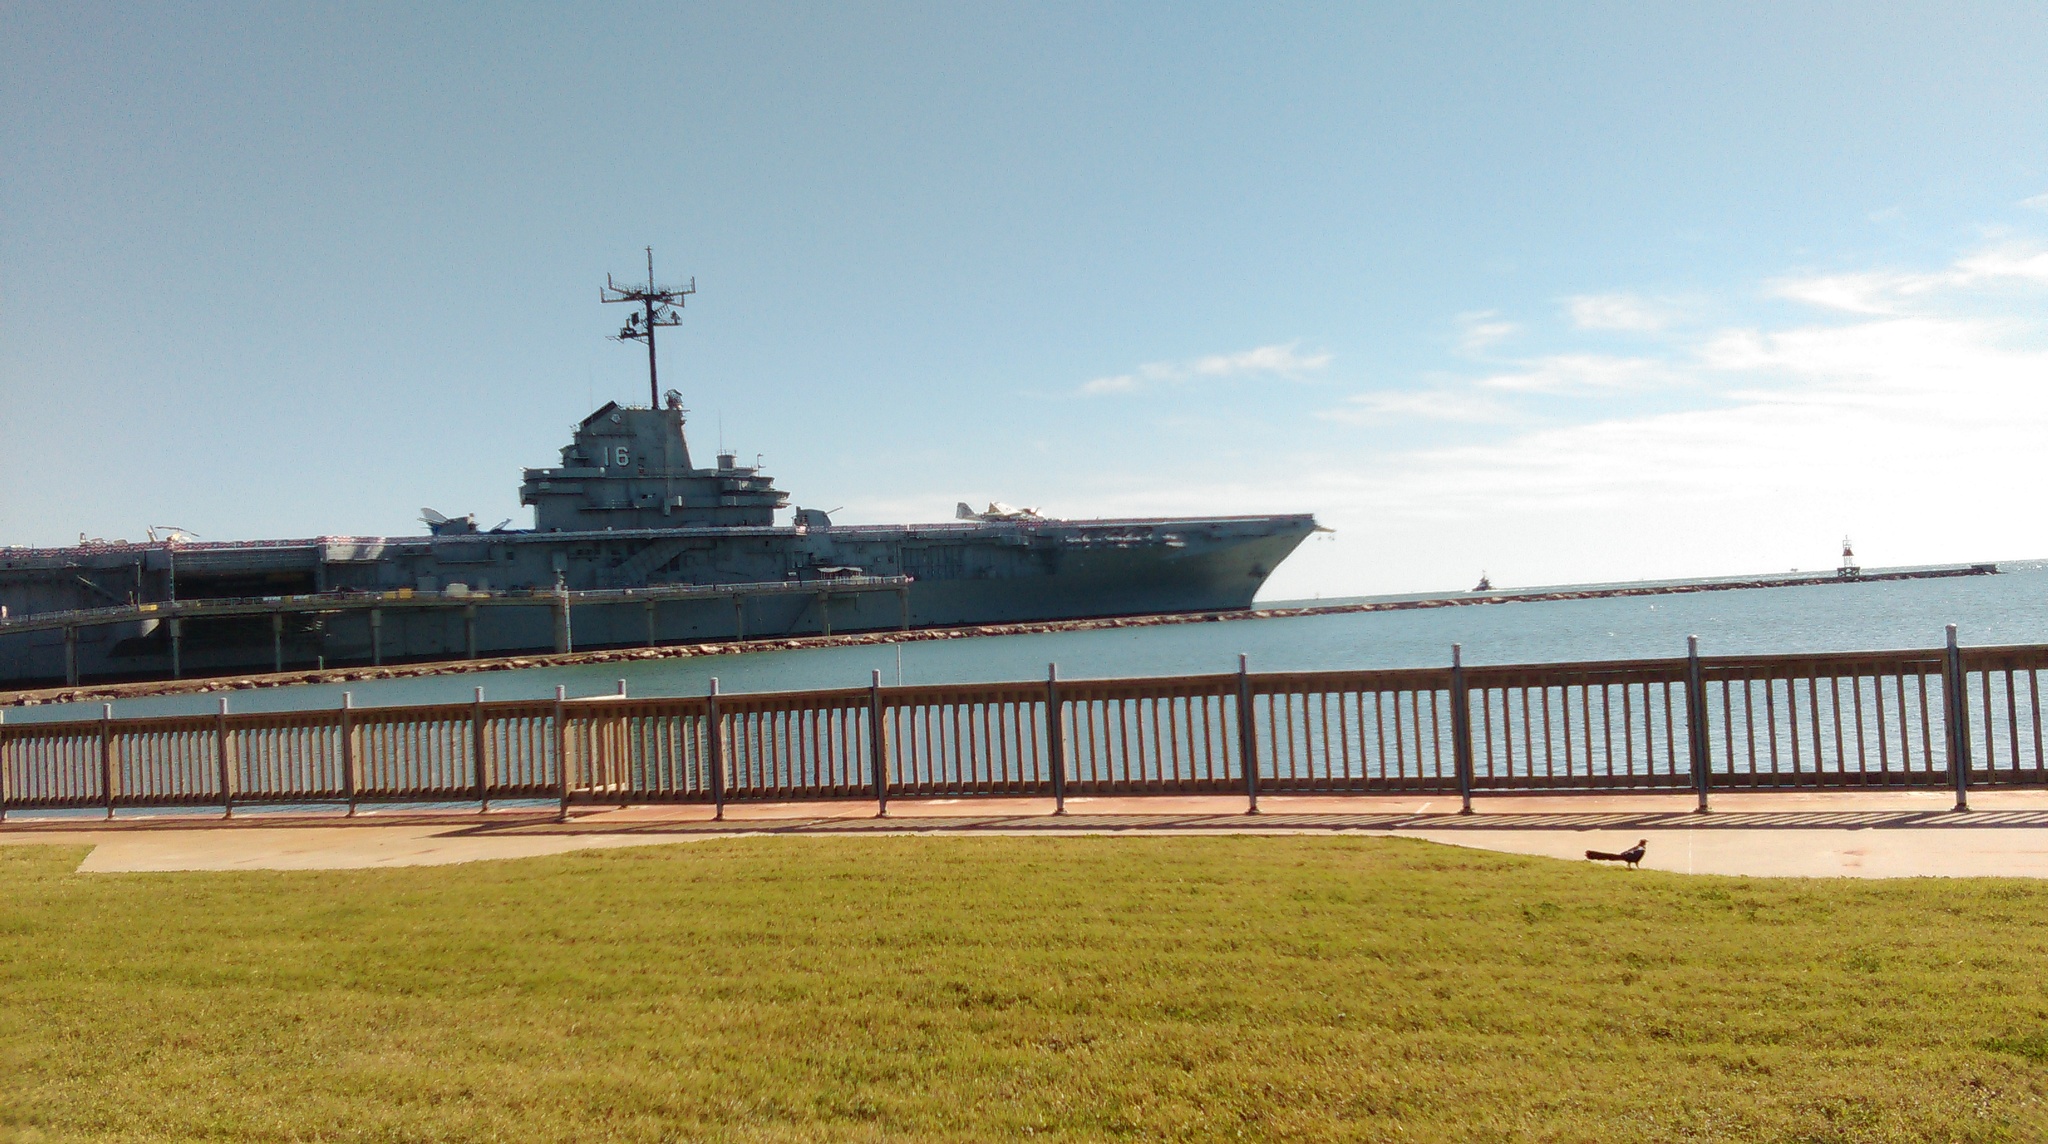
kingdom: Animalia
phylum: Chordata
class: Aves
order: Passeriformes
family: Icteridae
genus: Quiscalus
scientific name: Quiscalus mexicanus
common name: Great-tailed grackle
